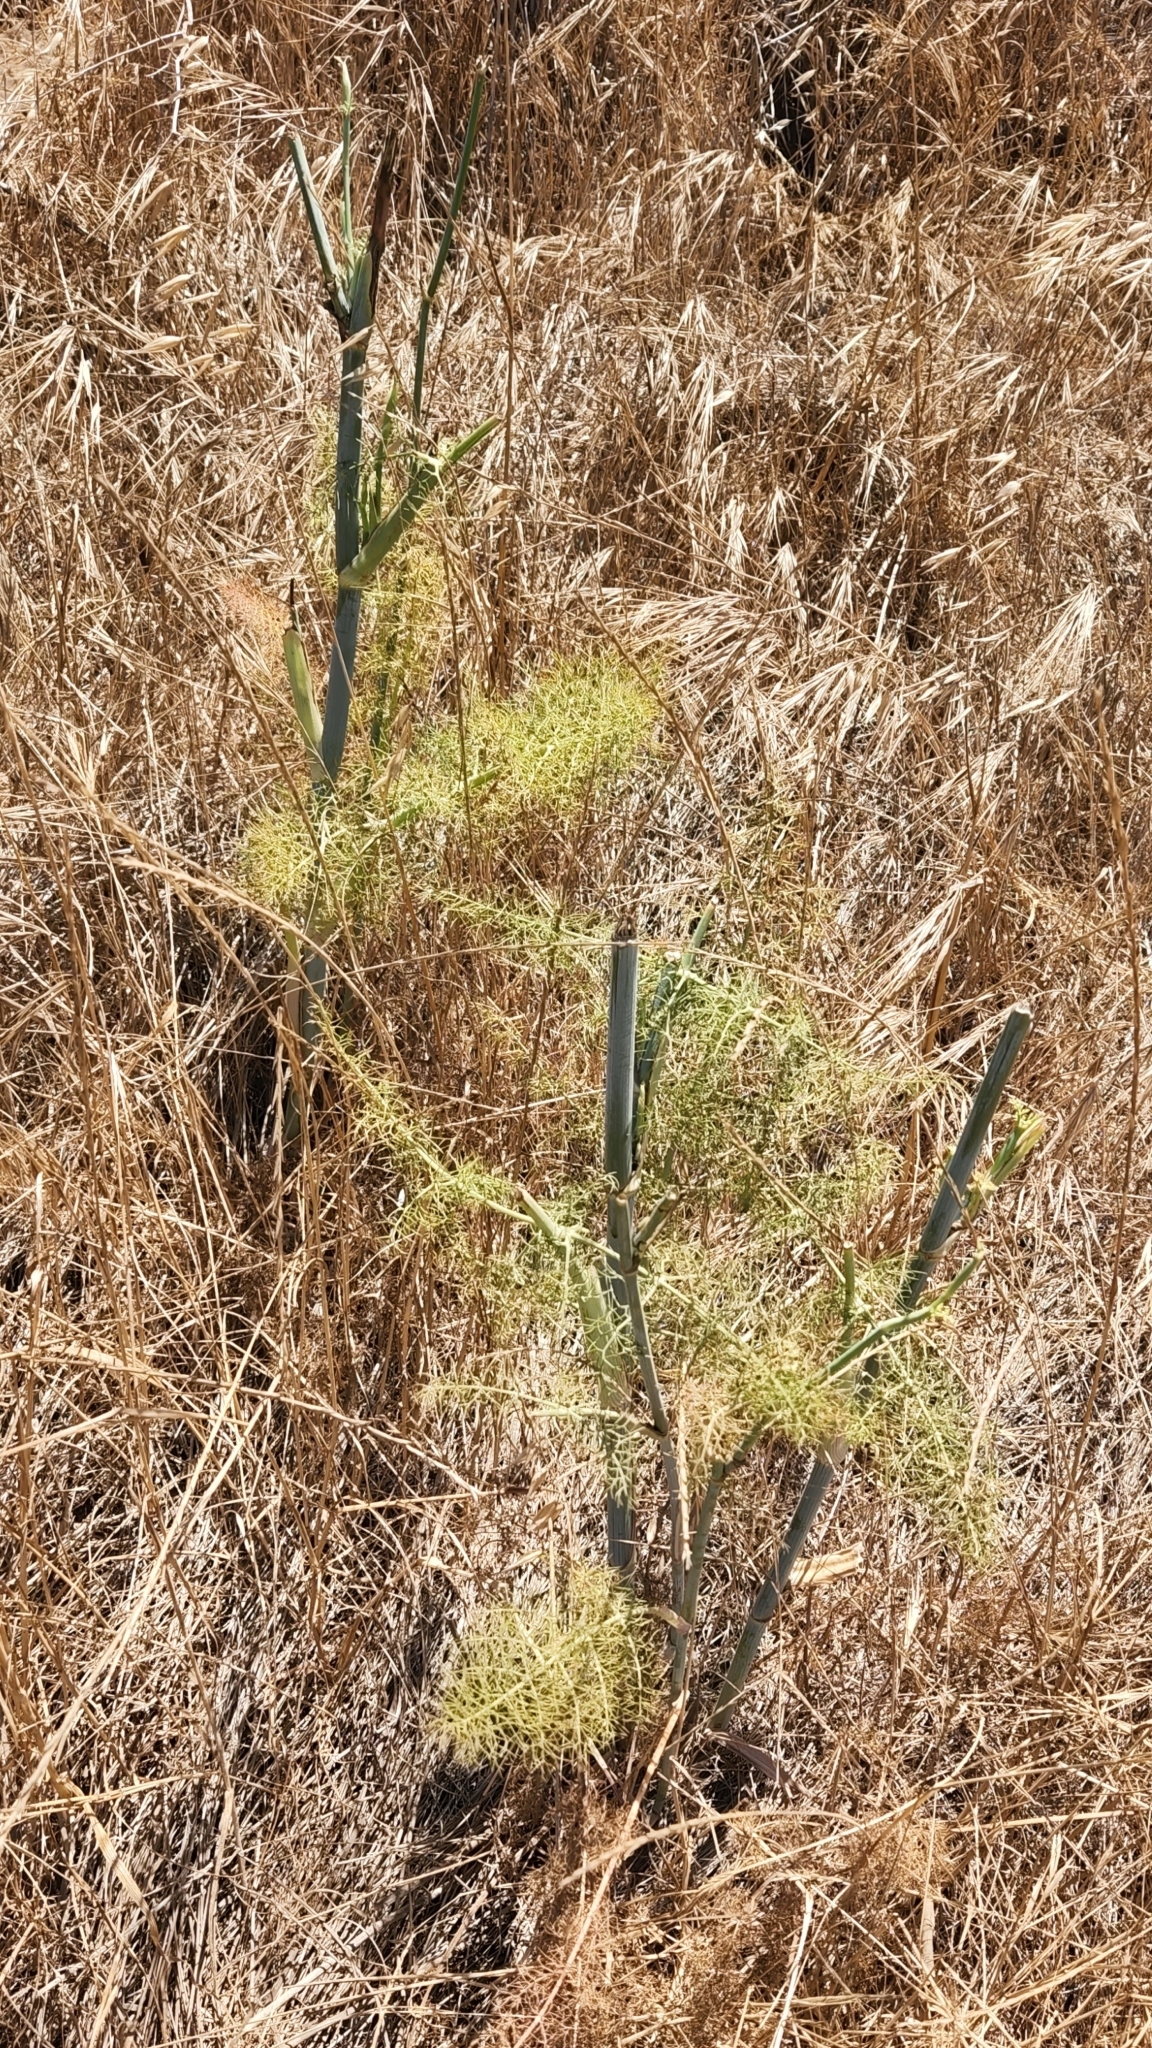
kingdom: Plantae
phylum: Tracheophyta
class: Magnoliopsida
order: Apiales
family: Apiaceae
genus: Foeniculum
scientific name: Foeniculum vulgare
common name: Fennel
